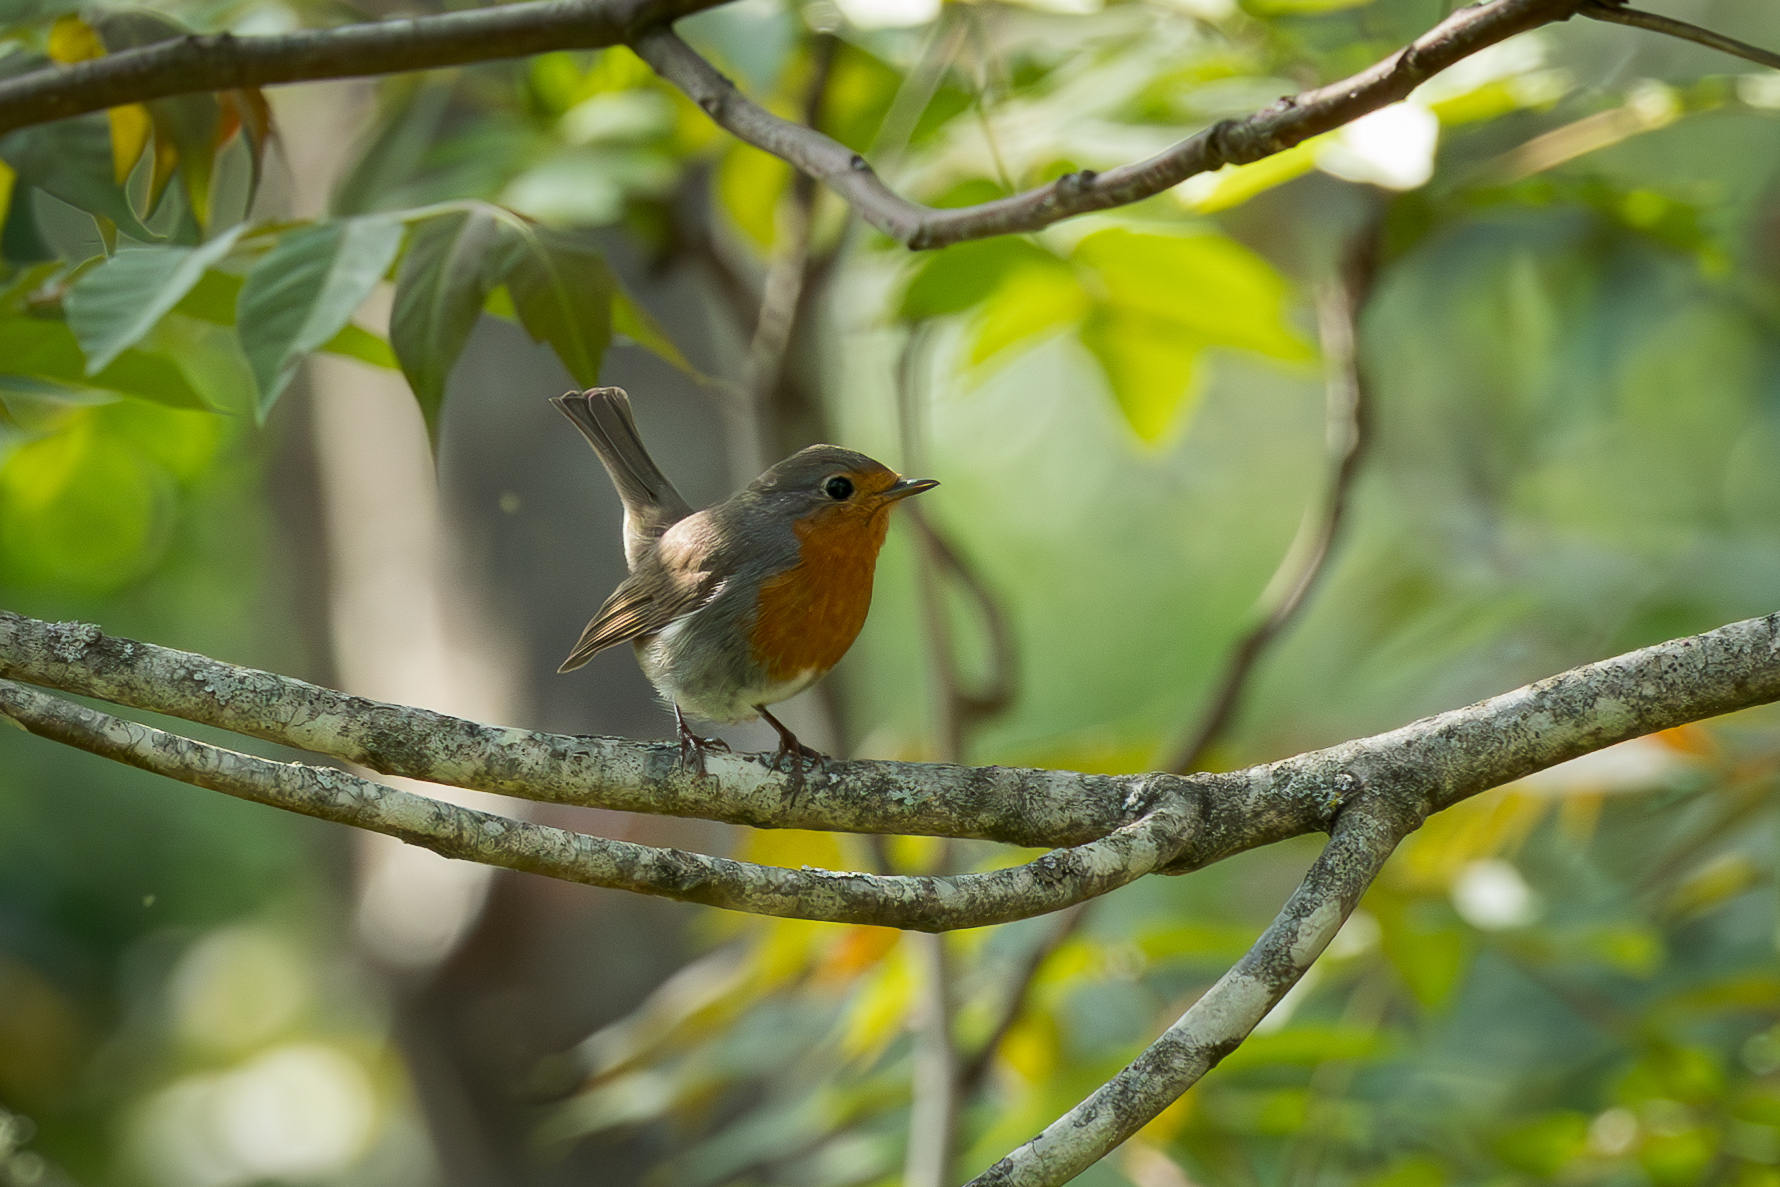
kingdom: Animalia
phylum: Chordata
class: Aves
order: Passeriformes
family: Muscicapidae
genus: Erithacus
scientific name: Erithacus rubecula
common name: European robin
